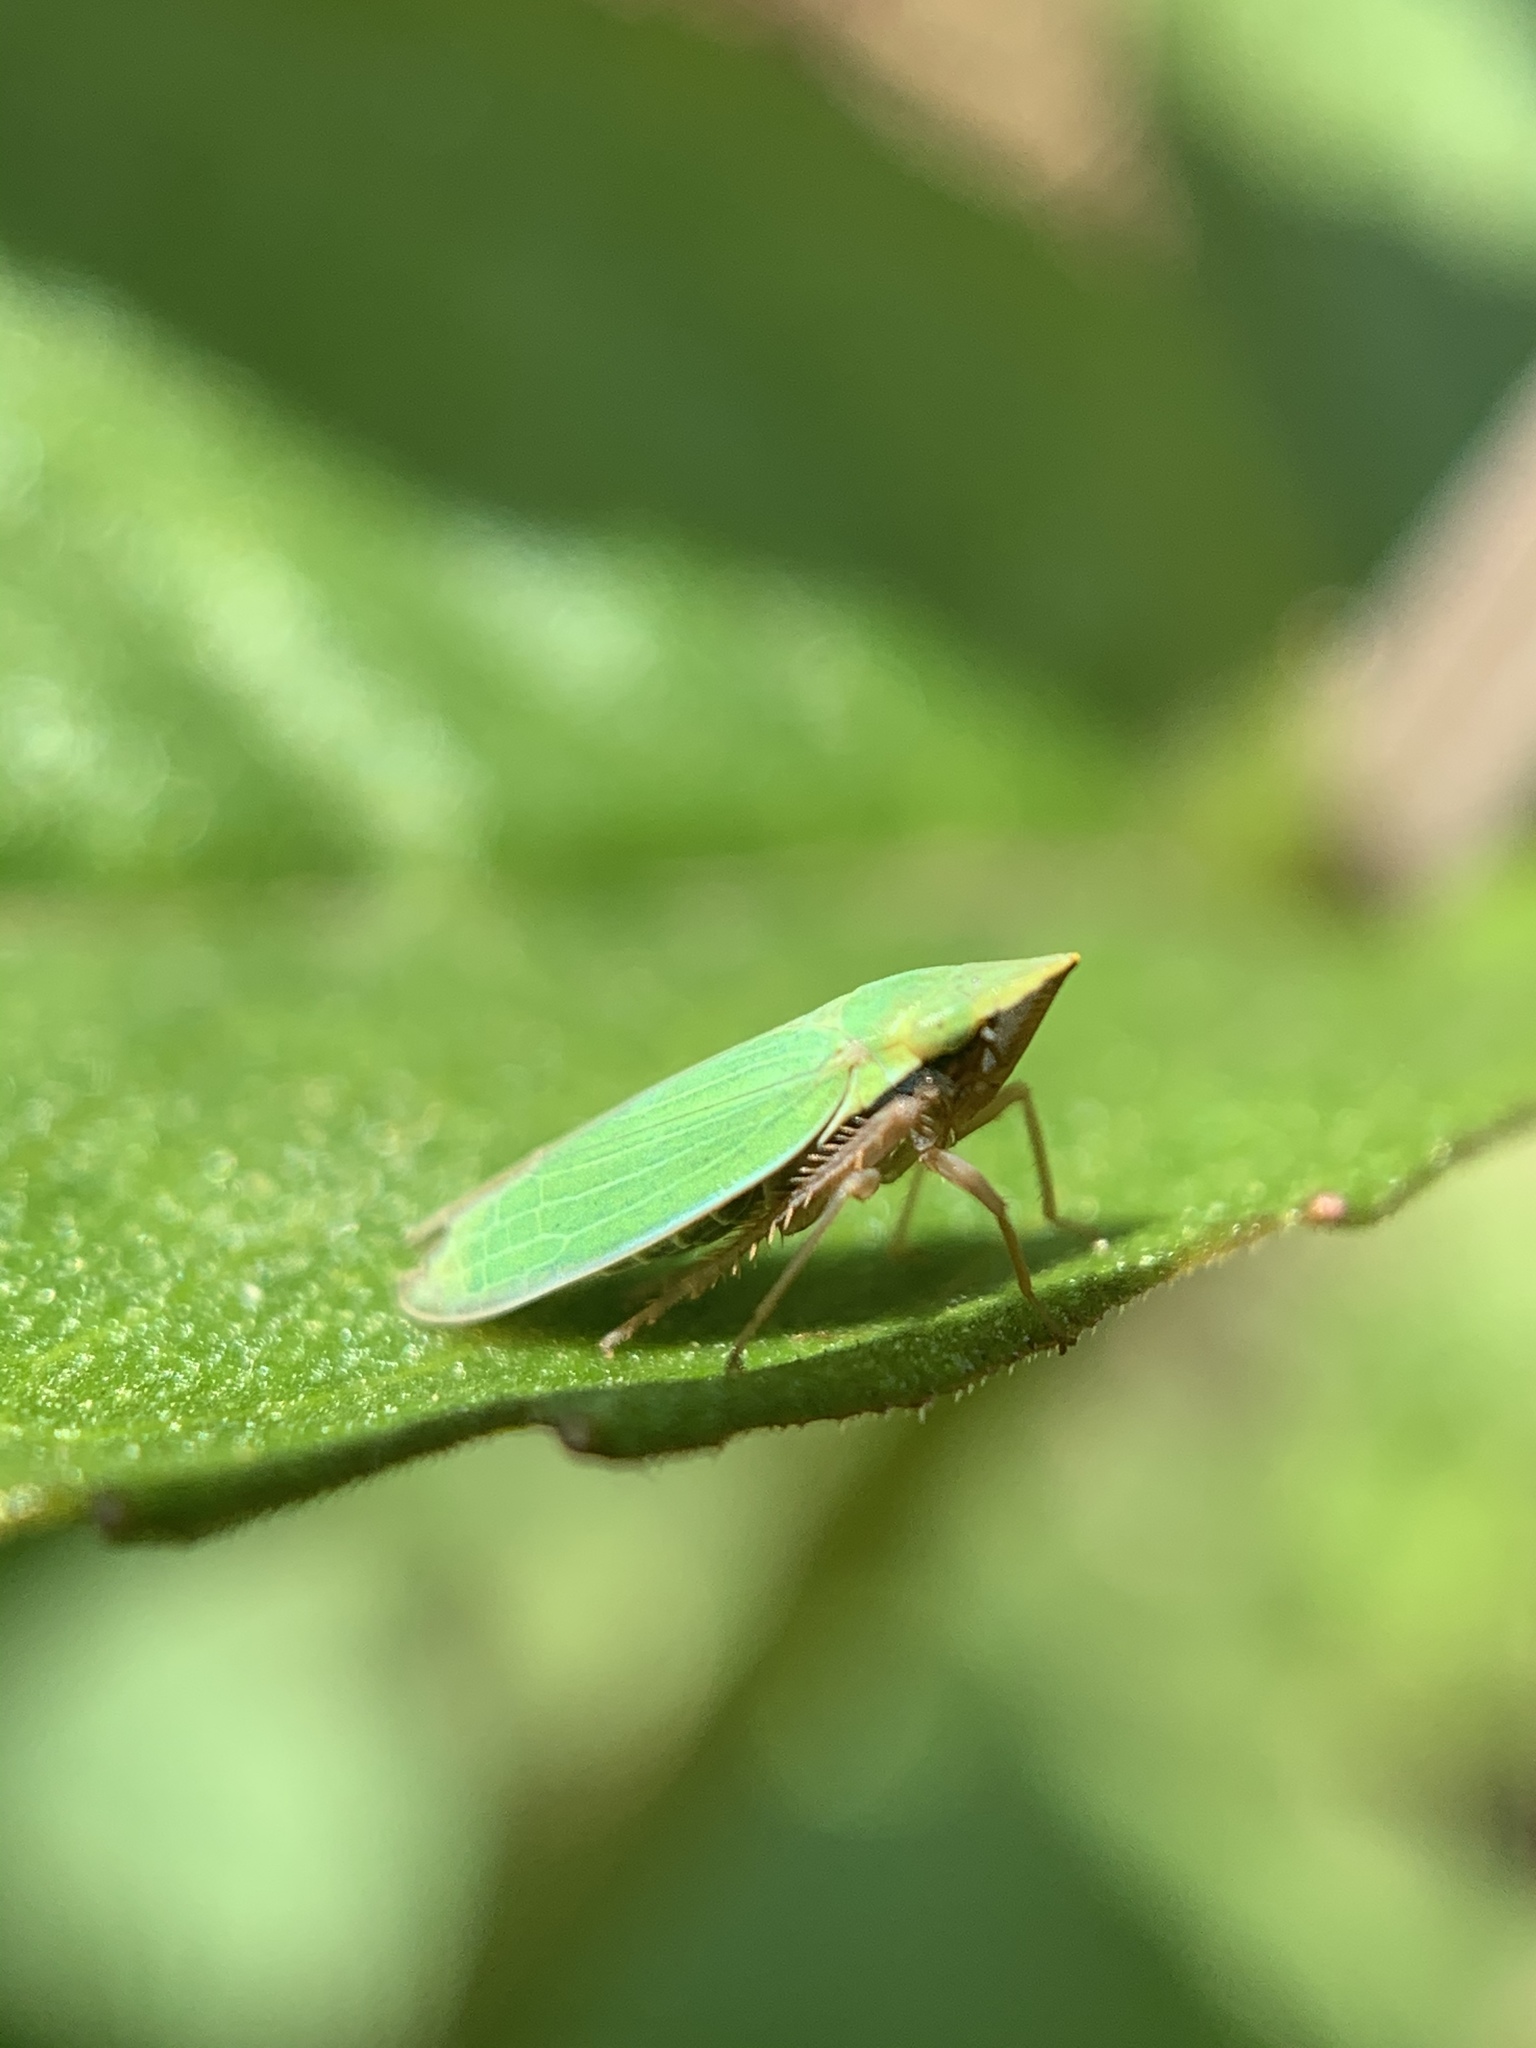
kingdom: Animalia
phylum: Arthropoda
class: Insecta
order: Hemiptera
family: Cicadellidae
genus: Draeculacephala
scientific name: Draeculacephala constricta
